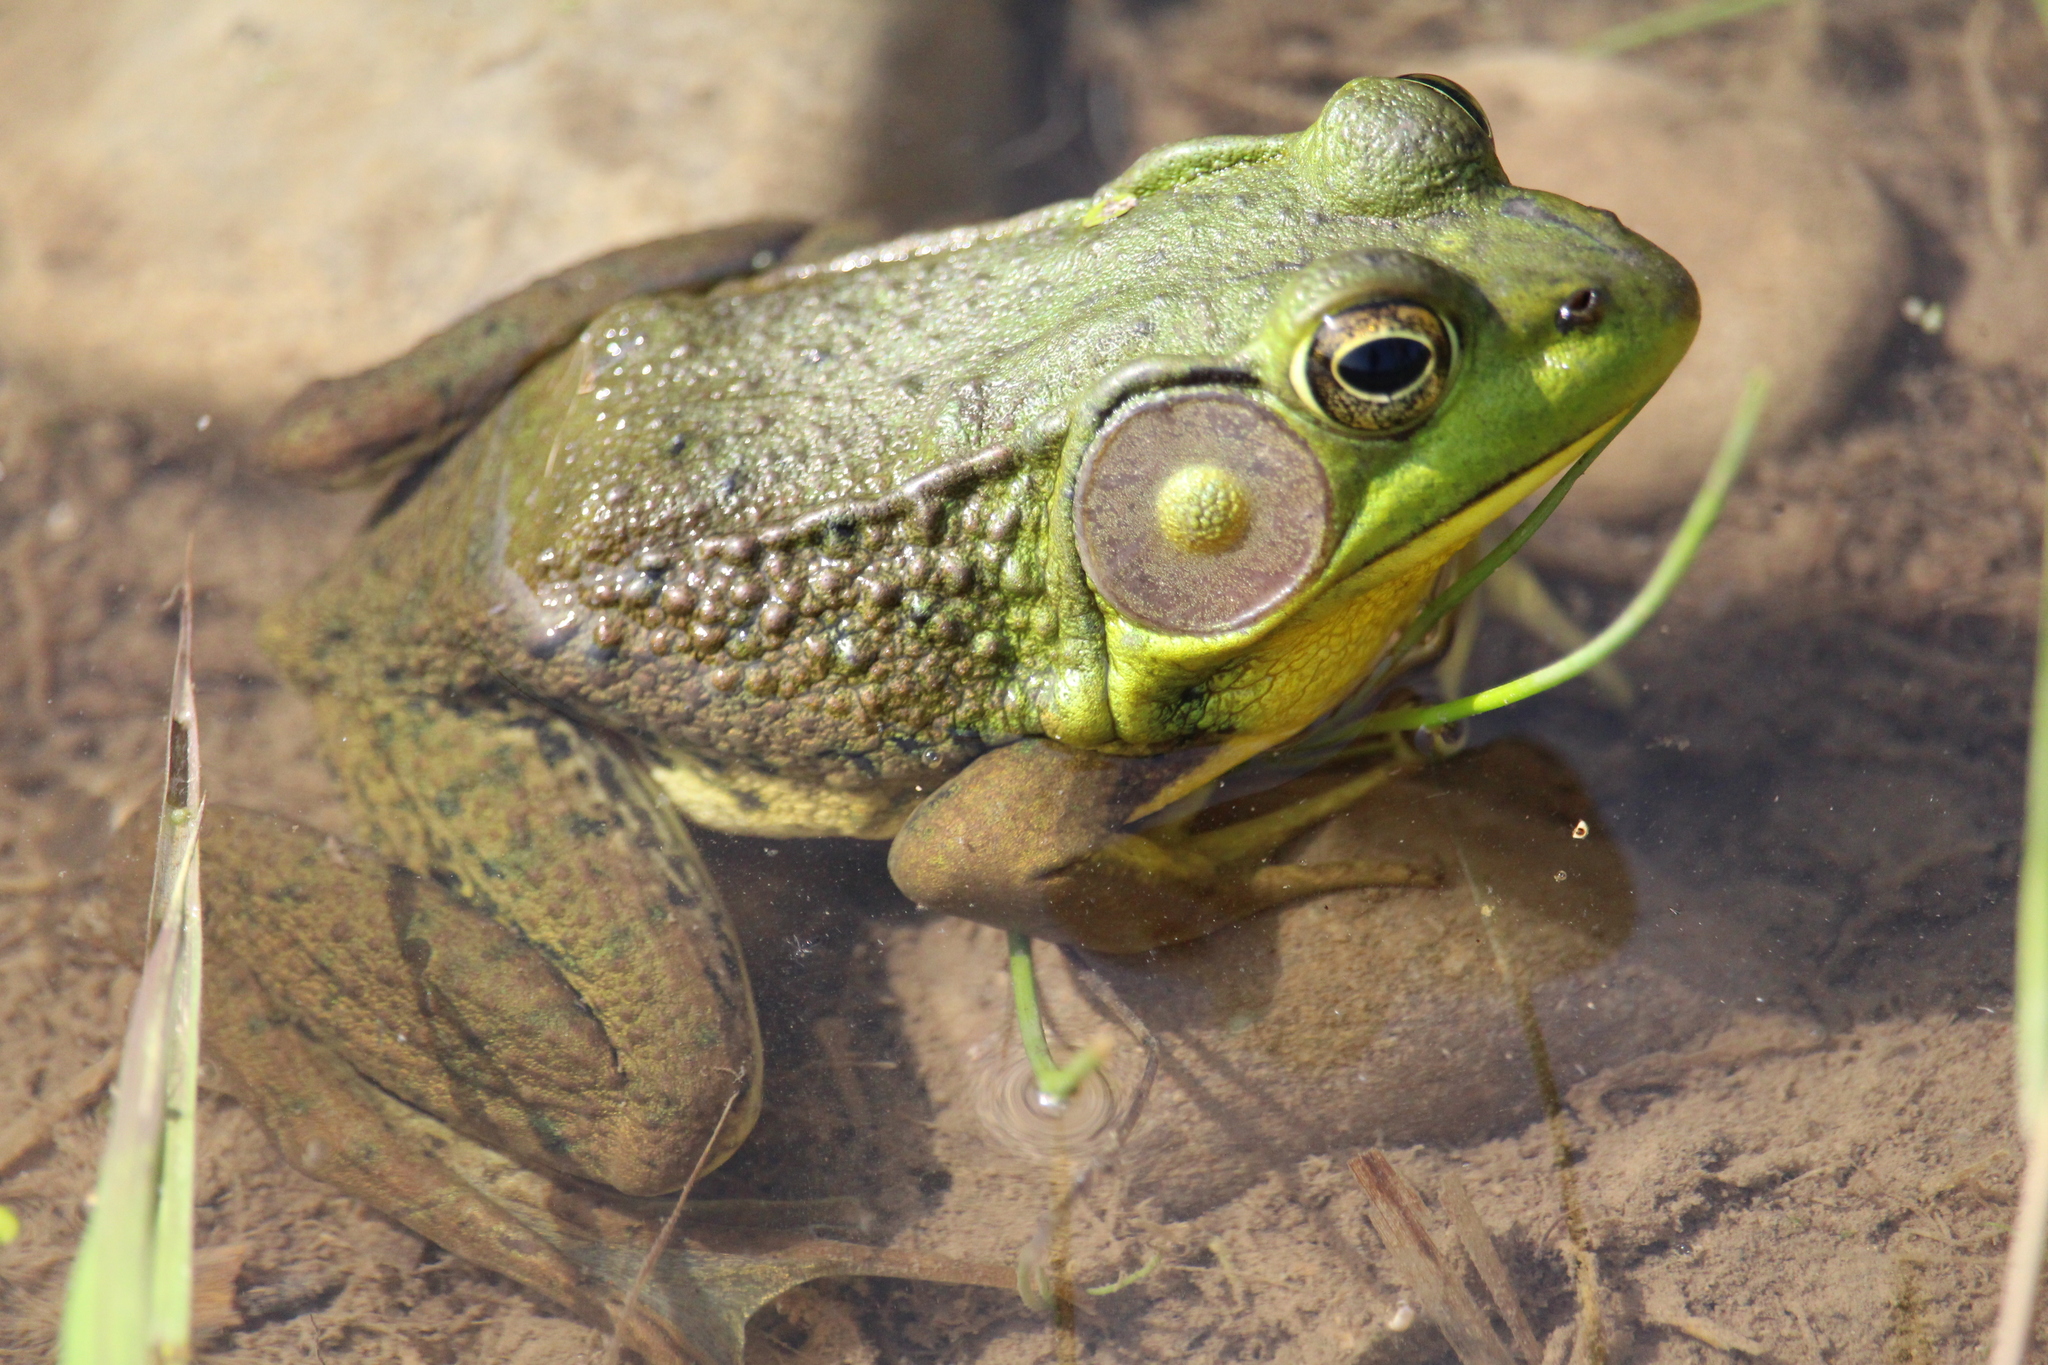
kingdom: Animalia
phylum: Chordata
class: Amphibia
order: Anura
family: Ranidae
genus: Lithobates
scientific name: Lithobates clamitans
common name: Green frog
